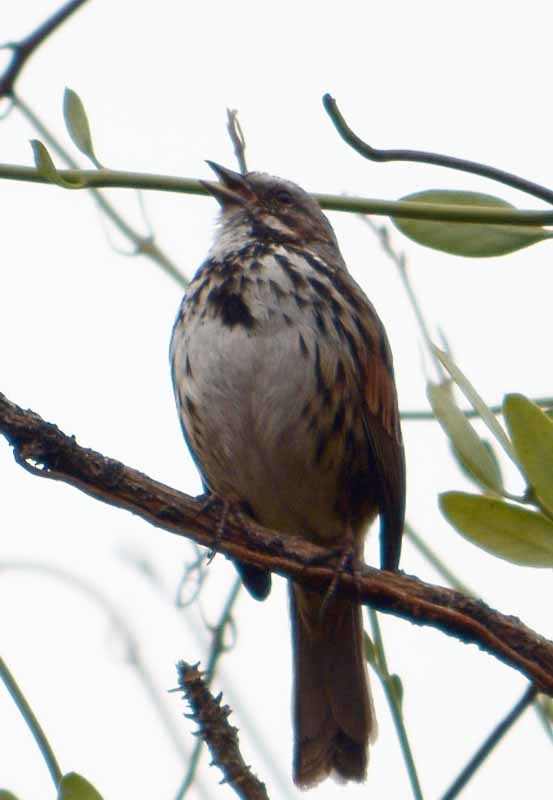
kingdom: Animalia
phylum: Chordata
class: Aves
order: Passeriformes
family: Passerellidae
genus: Melospiza
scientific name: Melospiza melodia
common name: Song sparrow
